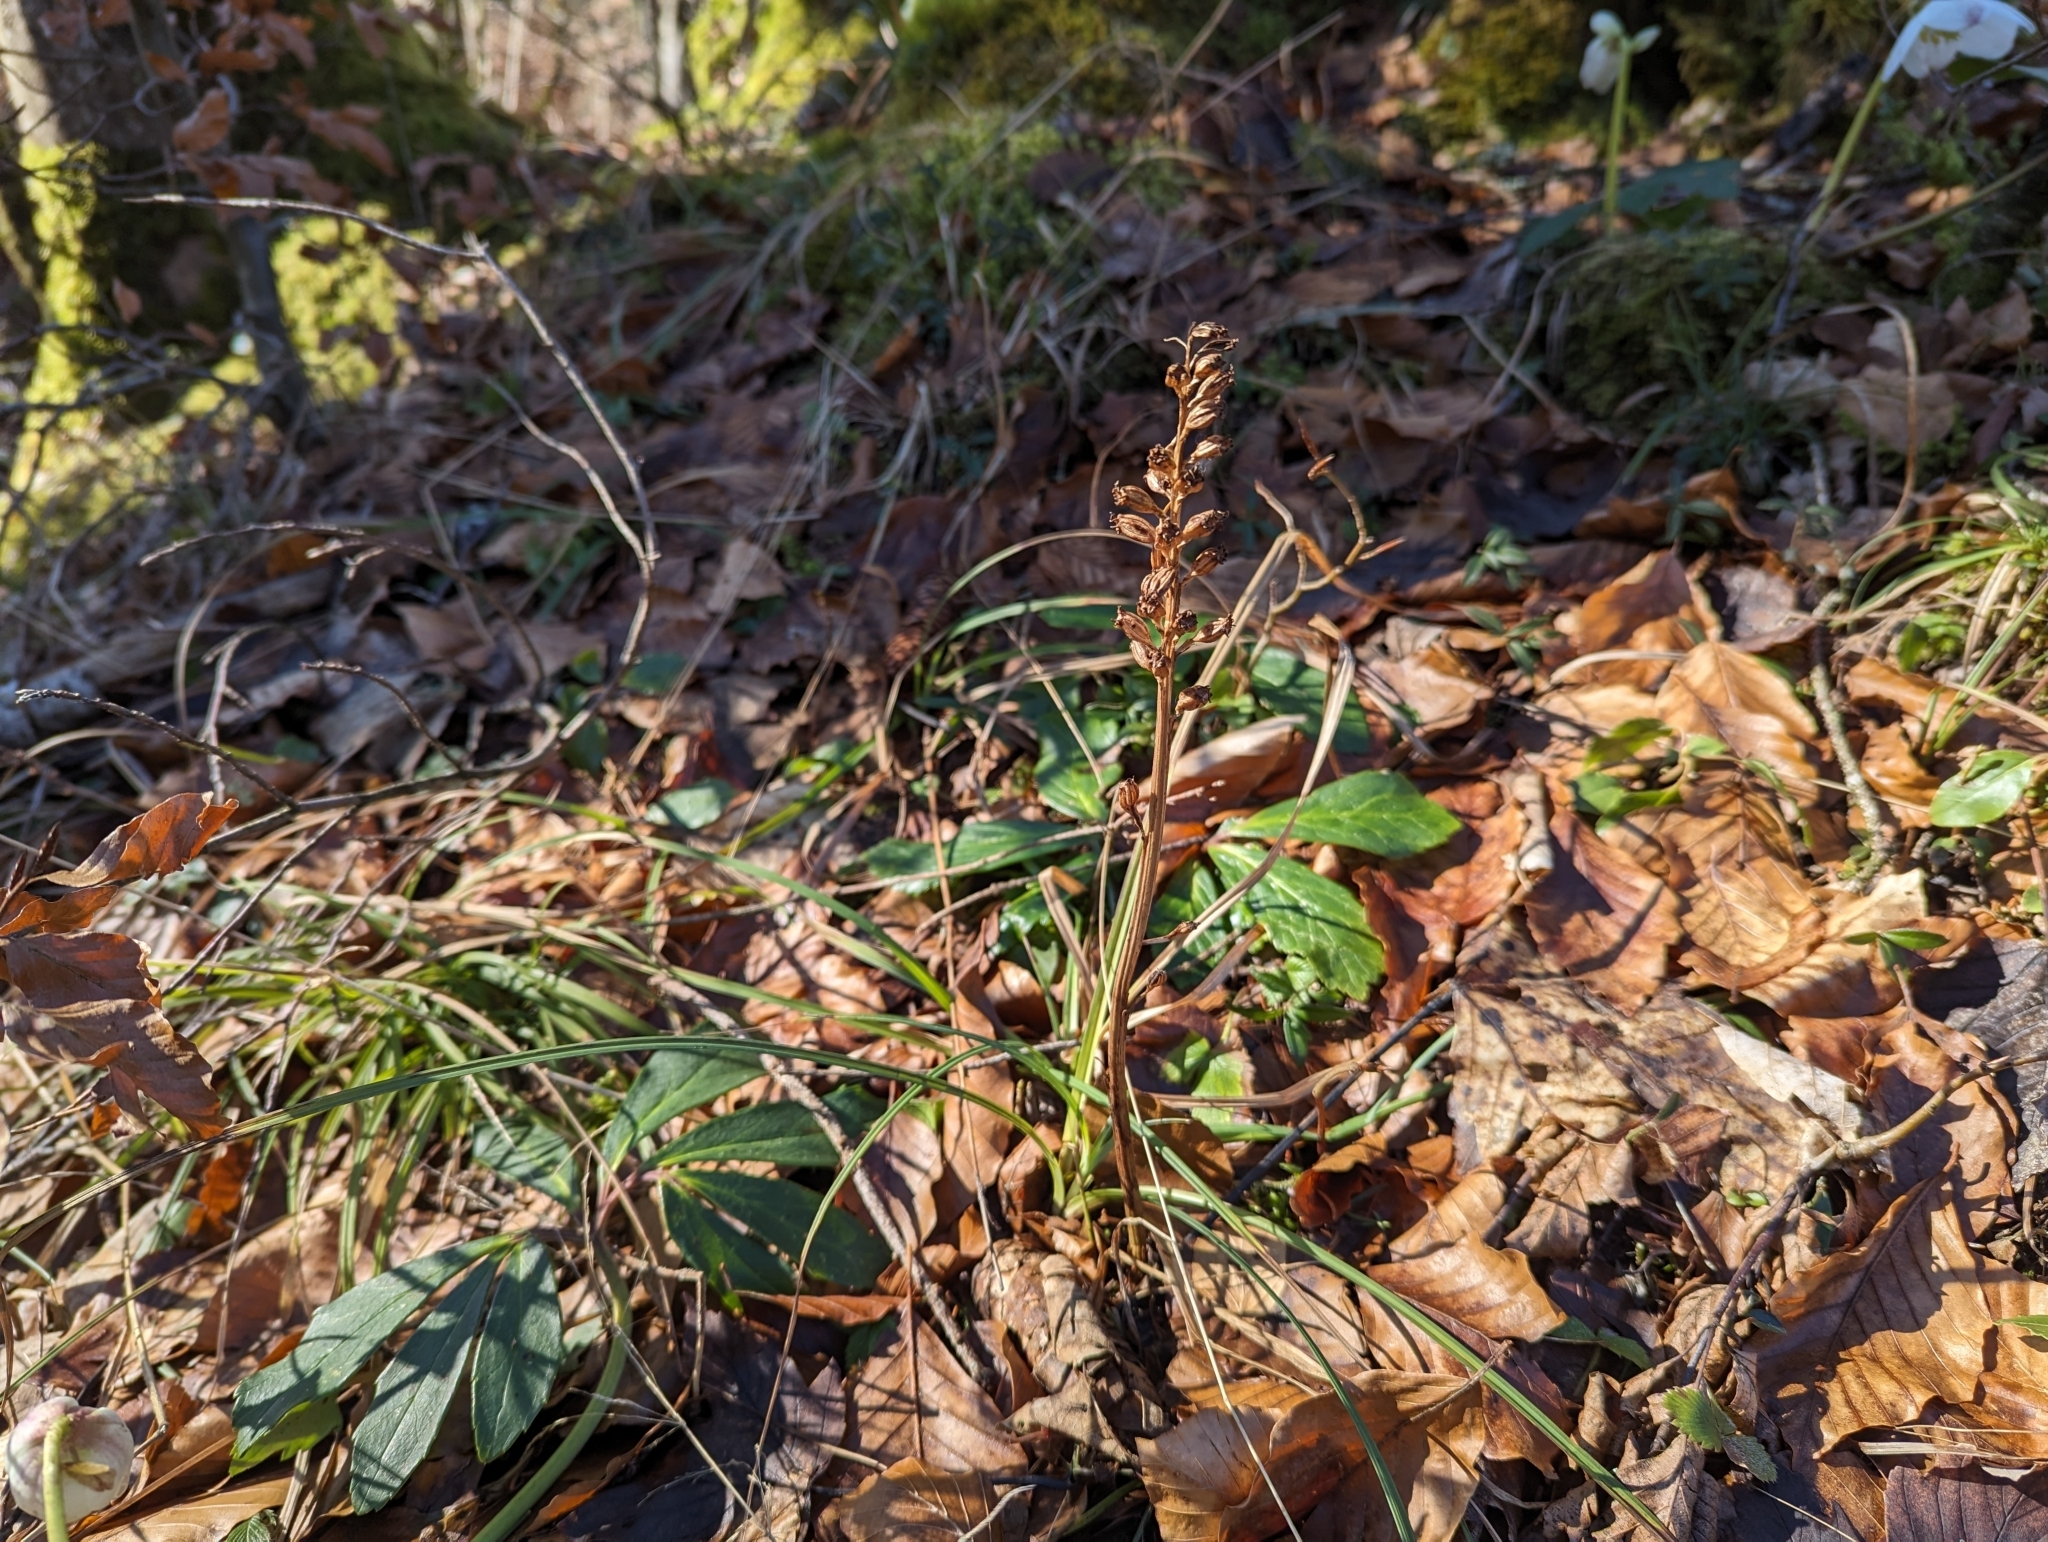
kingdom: Plantae
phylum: Tracheophyta
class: Liliopsida
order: Asparagales
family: Orchidaceae
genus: Neottia
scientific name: Neottia nidus-avis
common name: Bird's-nest orchid
